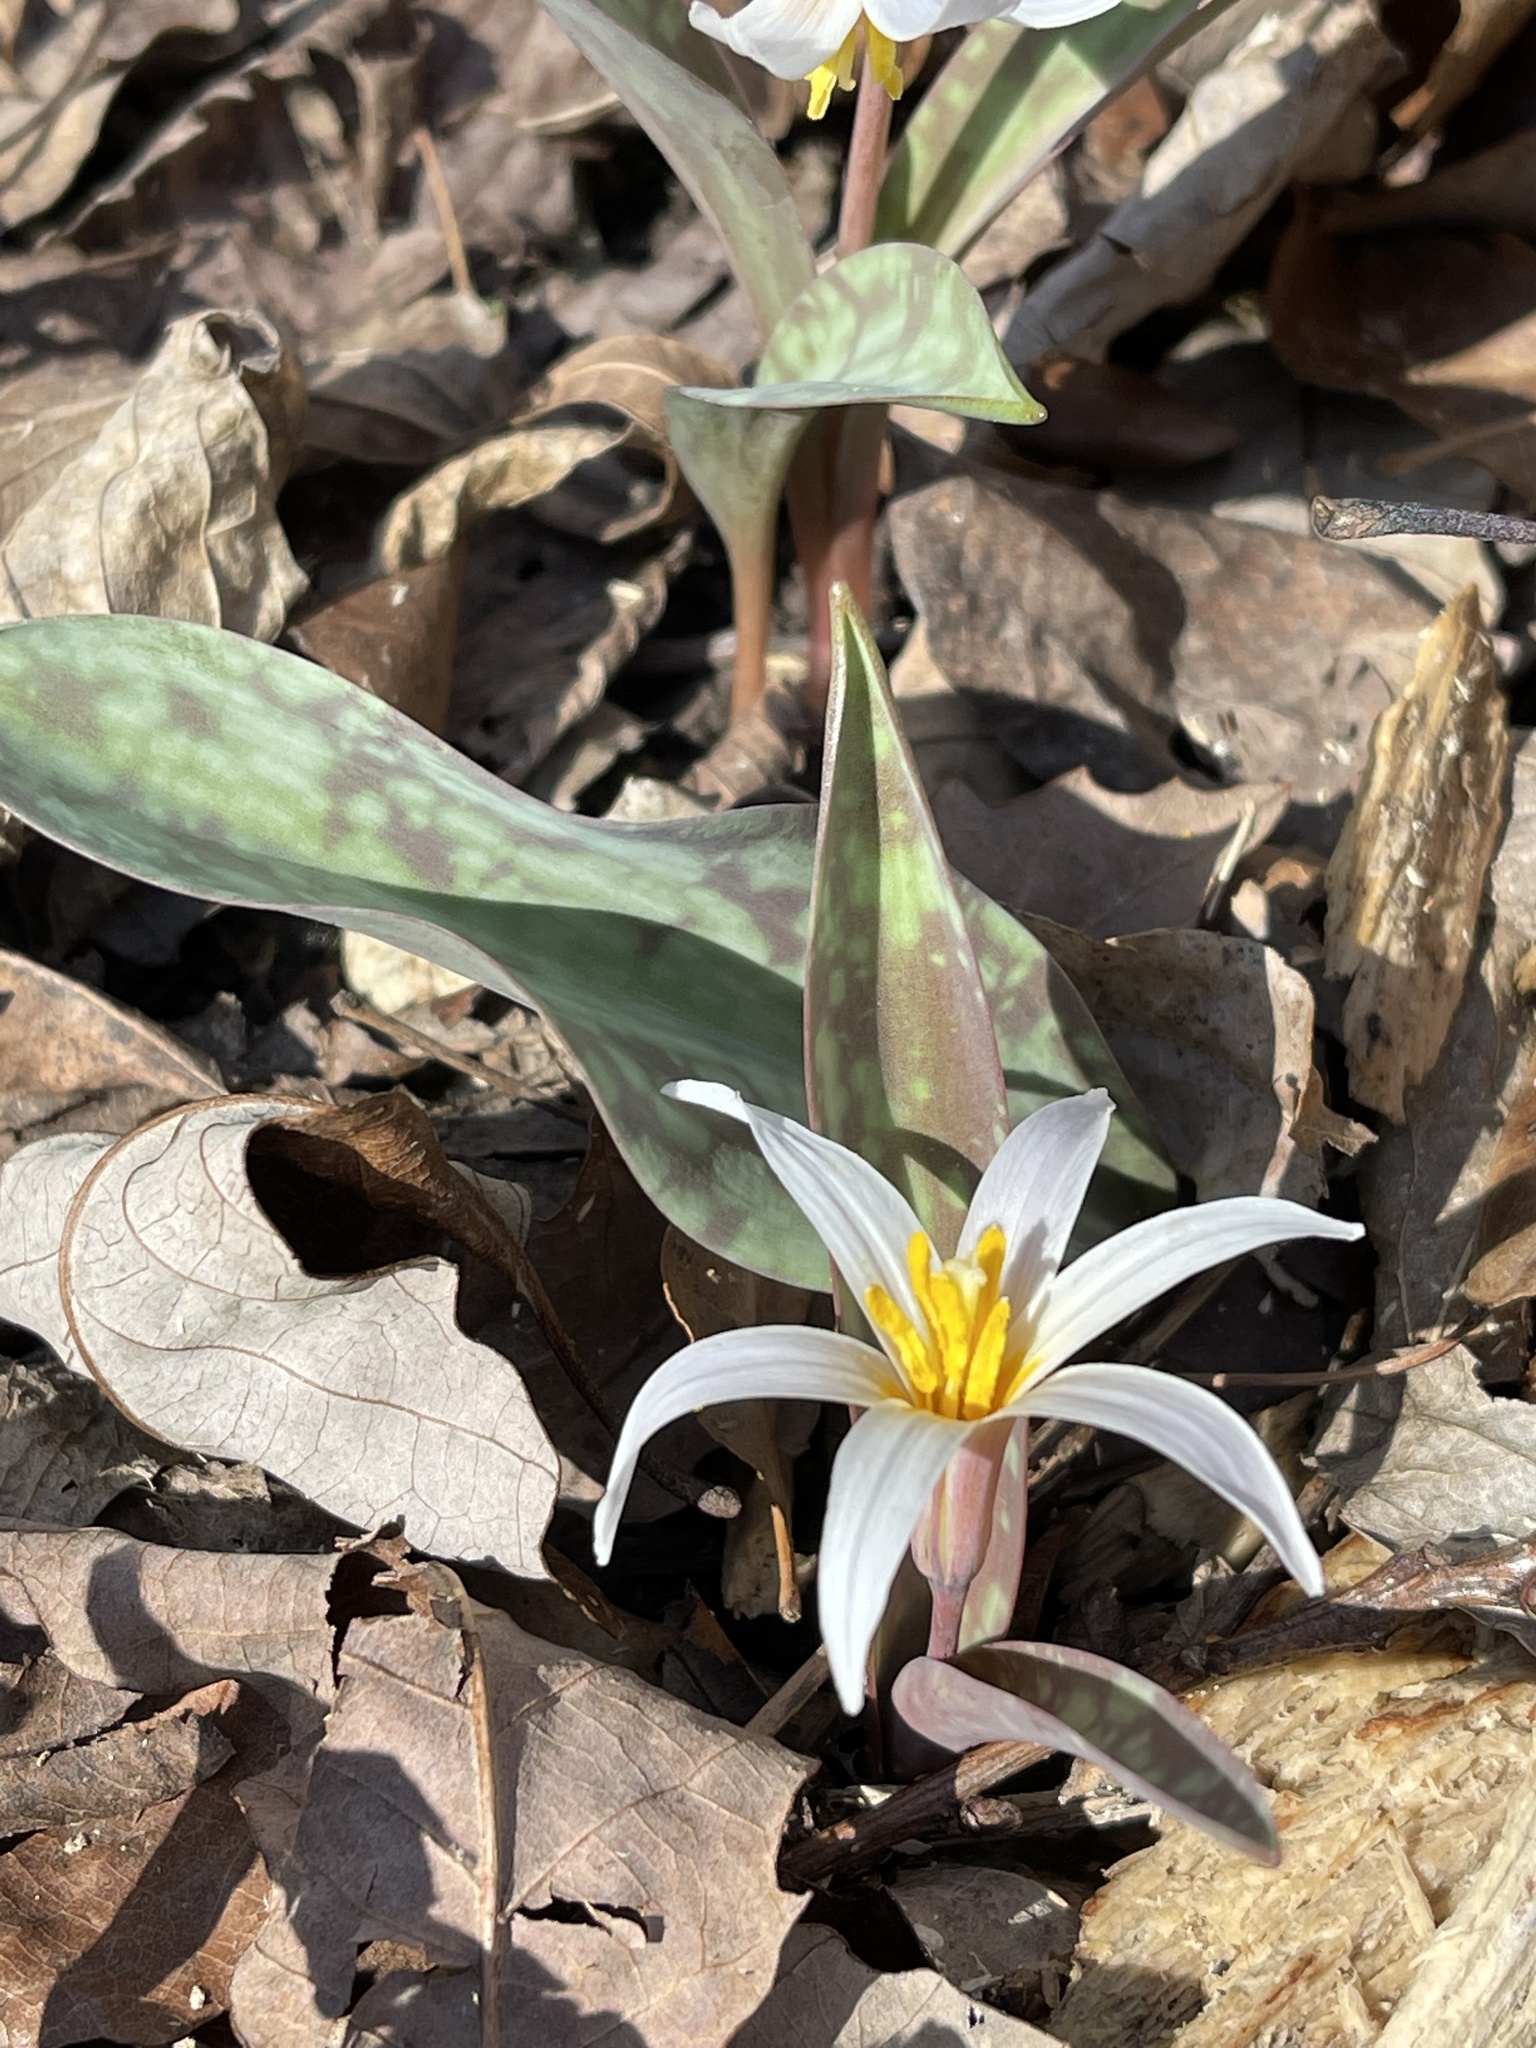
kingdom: Plantae
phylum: Tracheophyta
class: Liliopsida
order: Liliales
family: Liliaceae
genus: Erythronium
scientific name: Erythronium albidum
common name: White trout-lily
